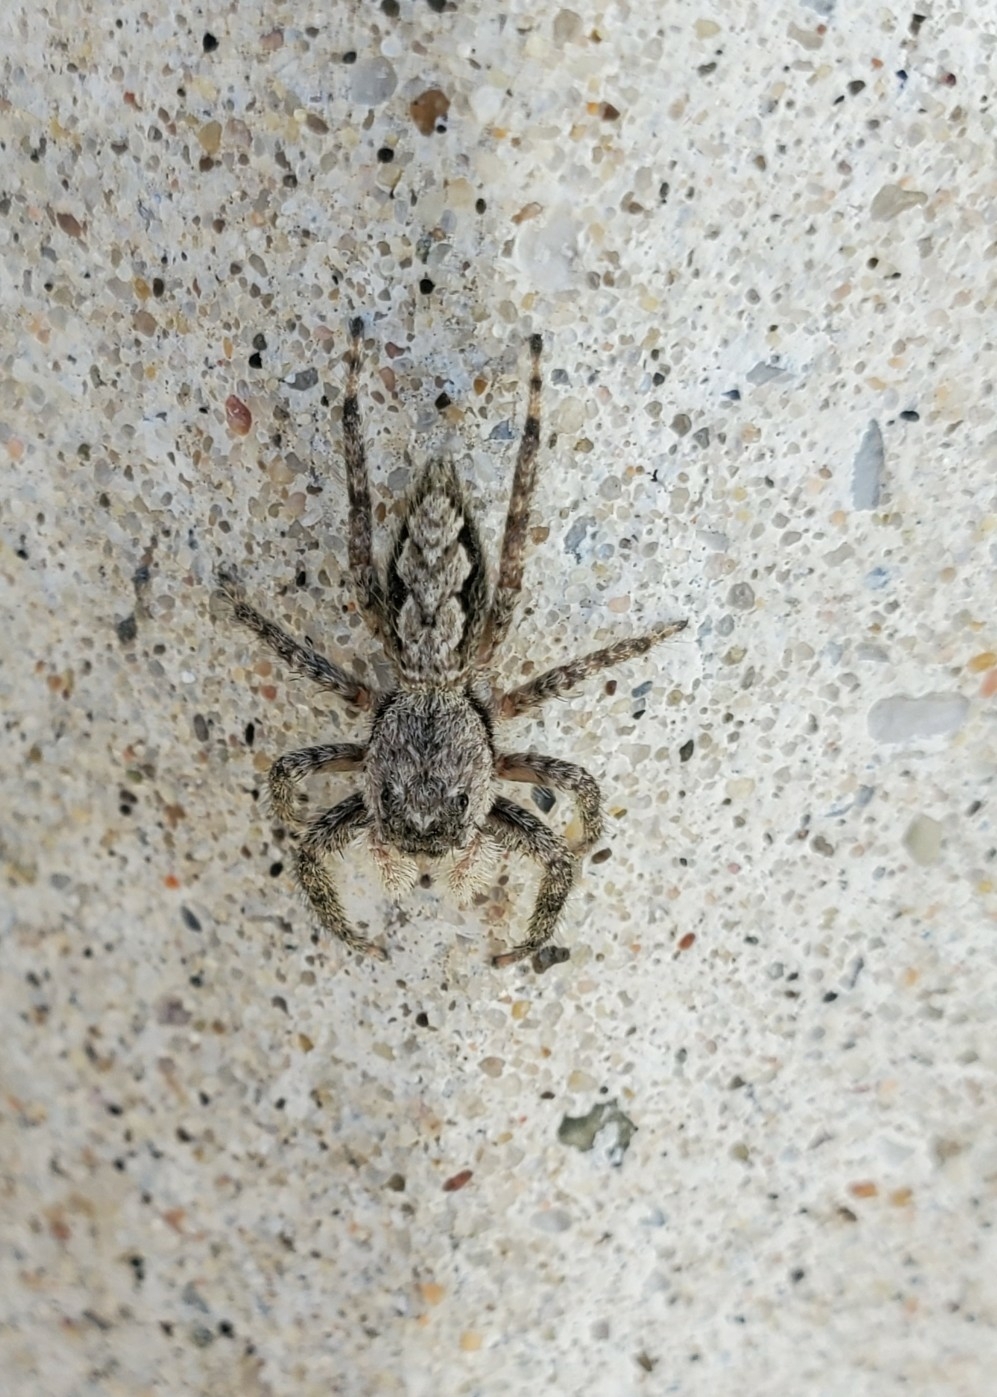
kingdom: Animalia
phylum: Arthropoda
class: Arachnida
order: Araneae
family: Salticidae
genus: Platycryptus
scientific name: Platycryptus undatus
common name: Tan jumping spider
